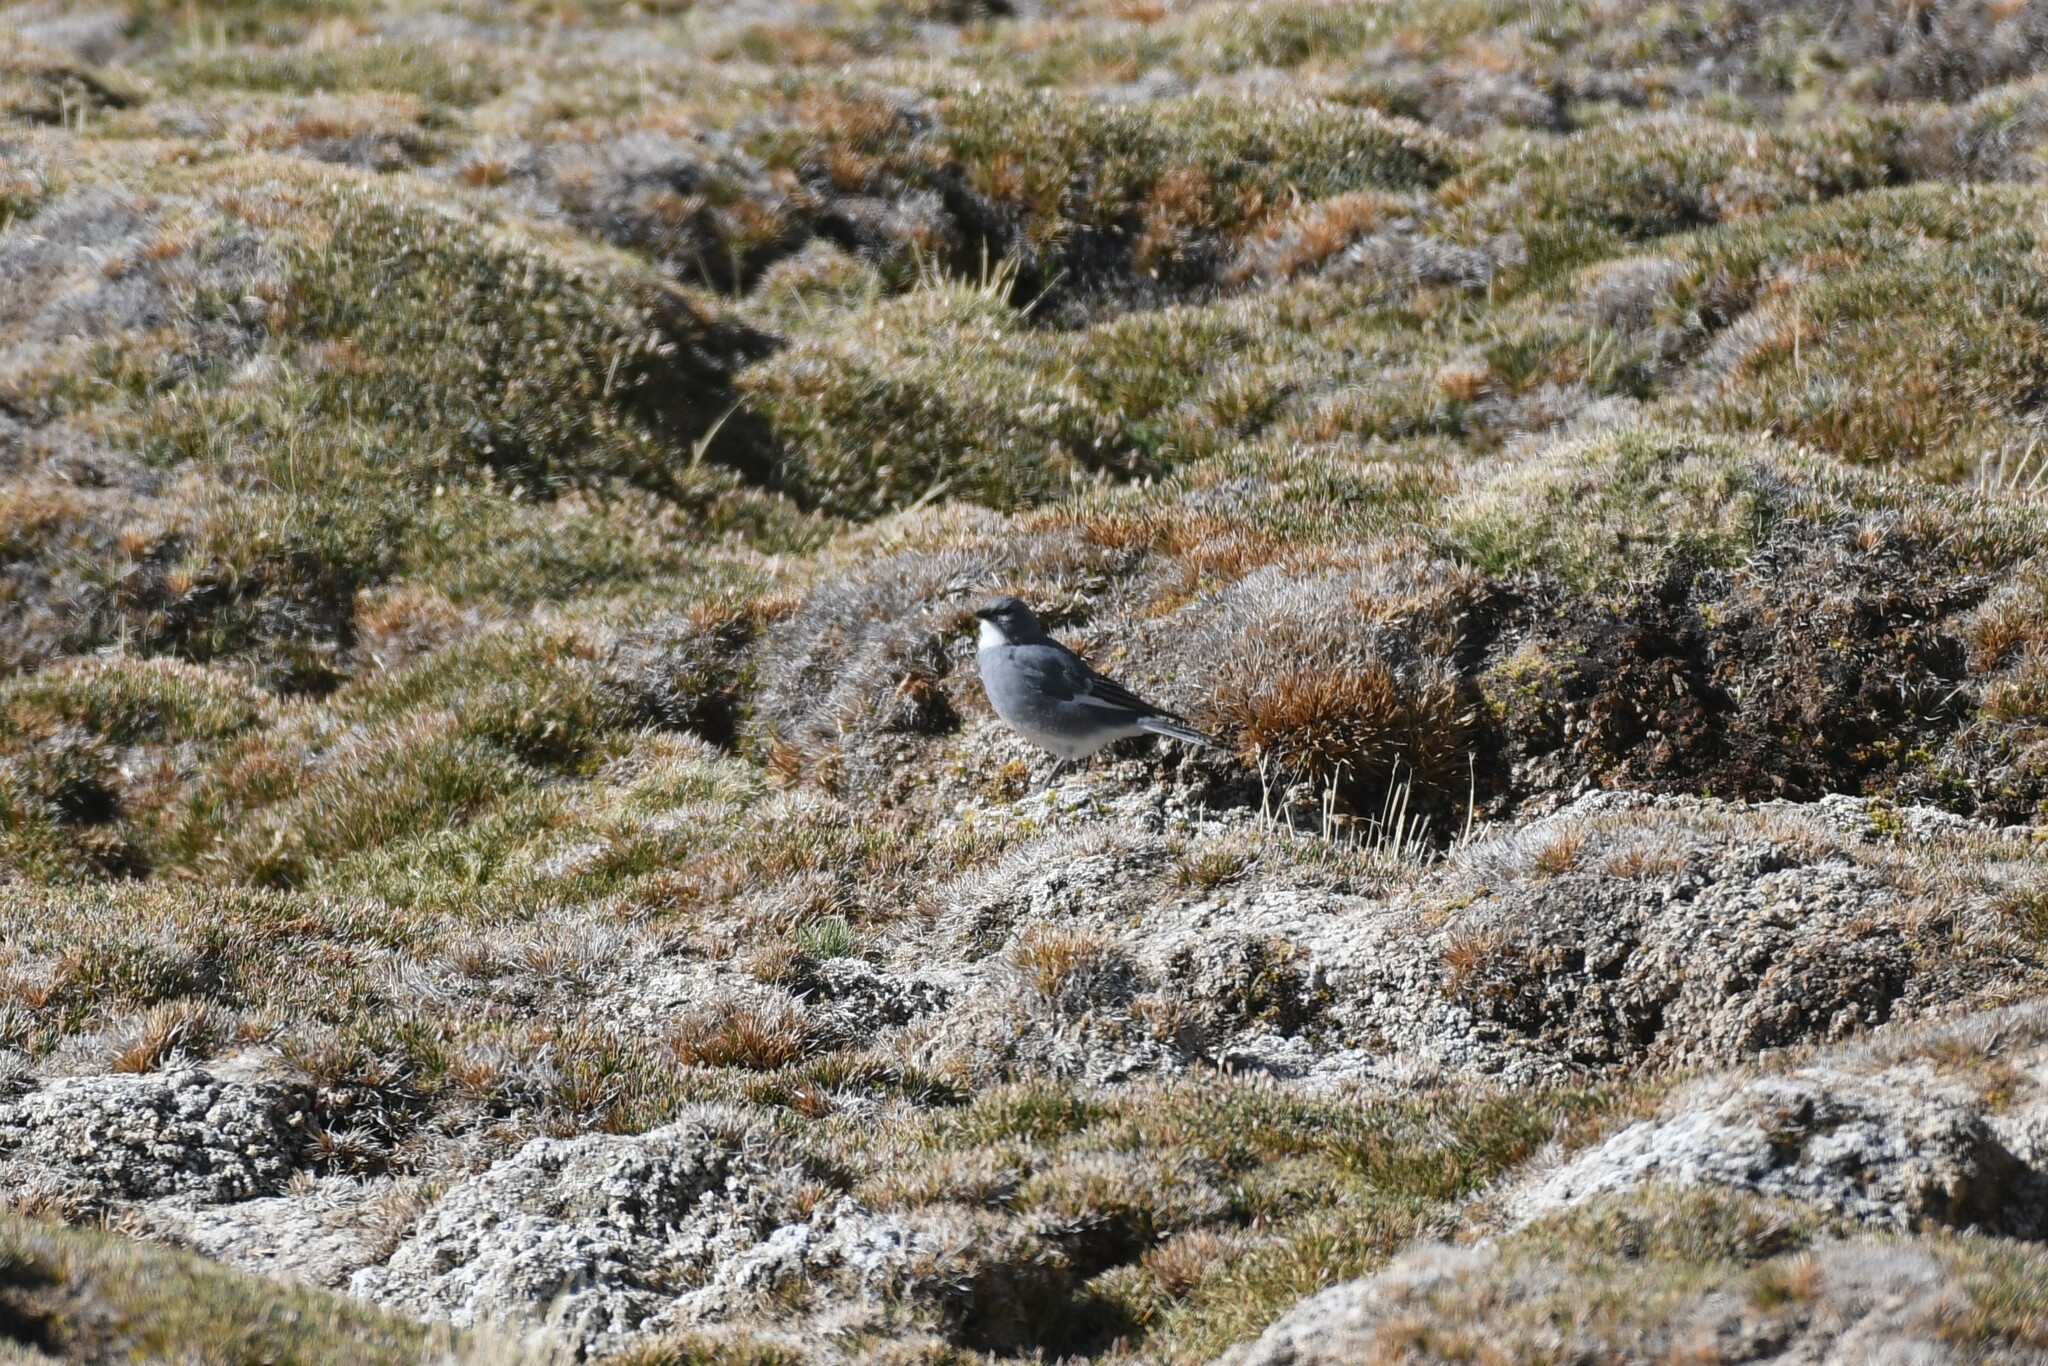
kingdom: Animalia
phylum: Chordata
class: Aves
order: Passeriformes
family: Thraupidae
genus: Idiopsar
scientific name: Idiopsar speculifer
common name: Glacier finch
